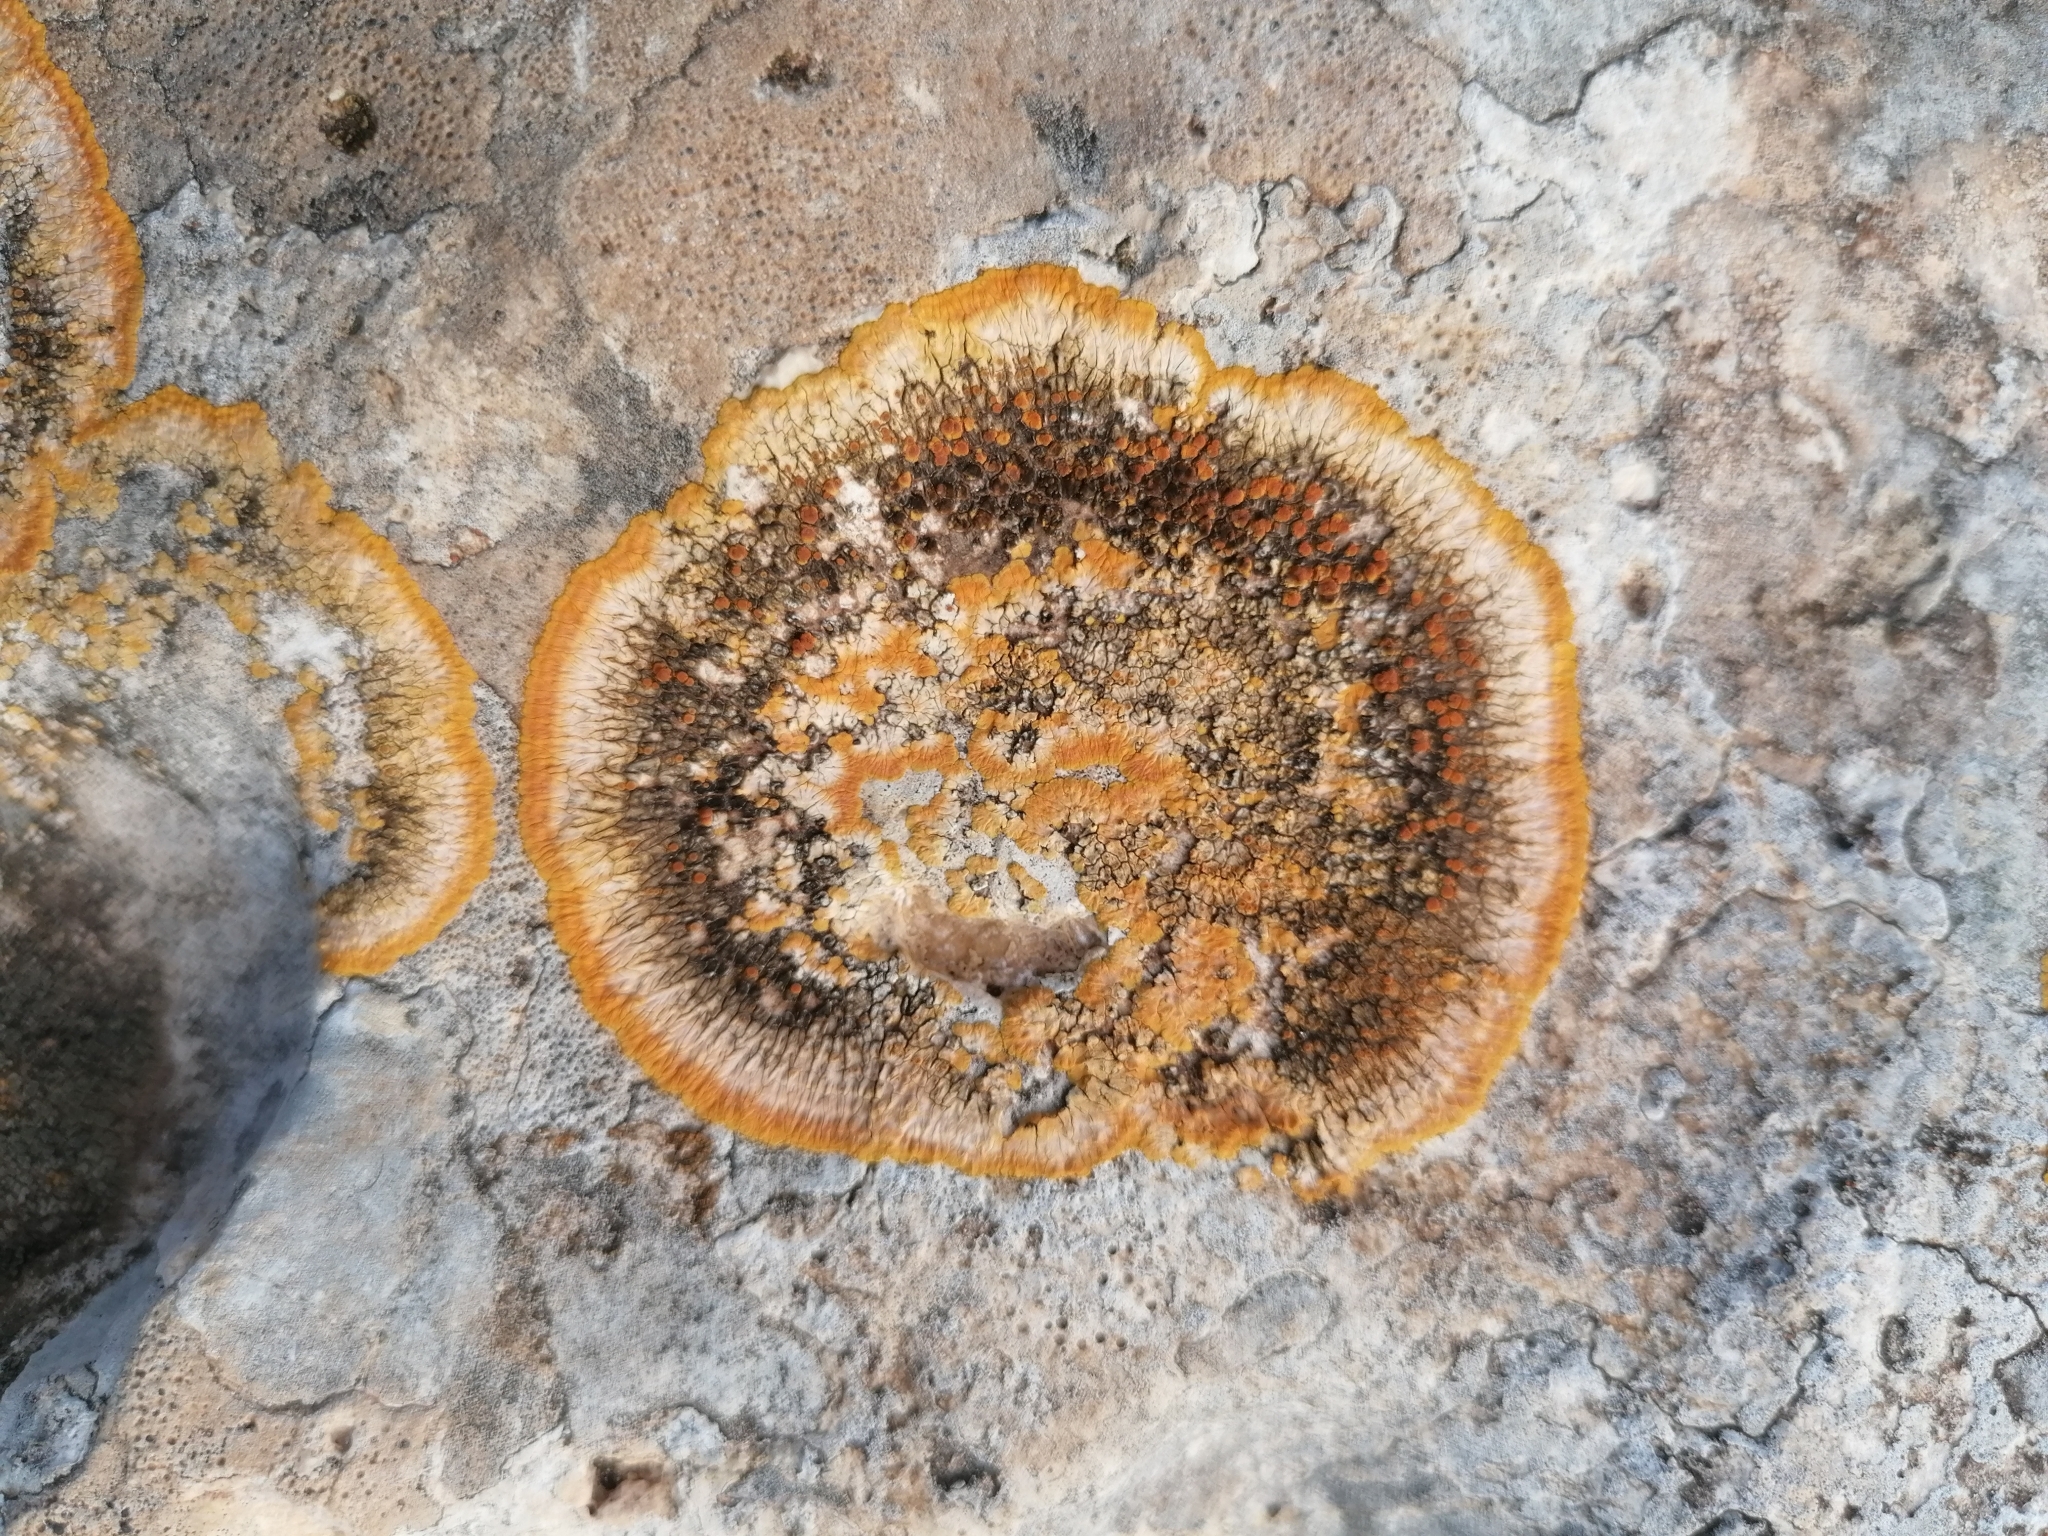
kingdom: Fungi
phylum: Ascomycota
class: Lecanoromycetes
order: Teloschistales
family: Teloschistaceae
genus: Variospora
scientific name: Variospora aurantia
